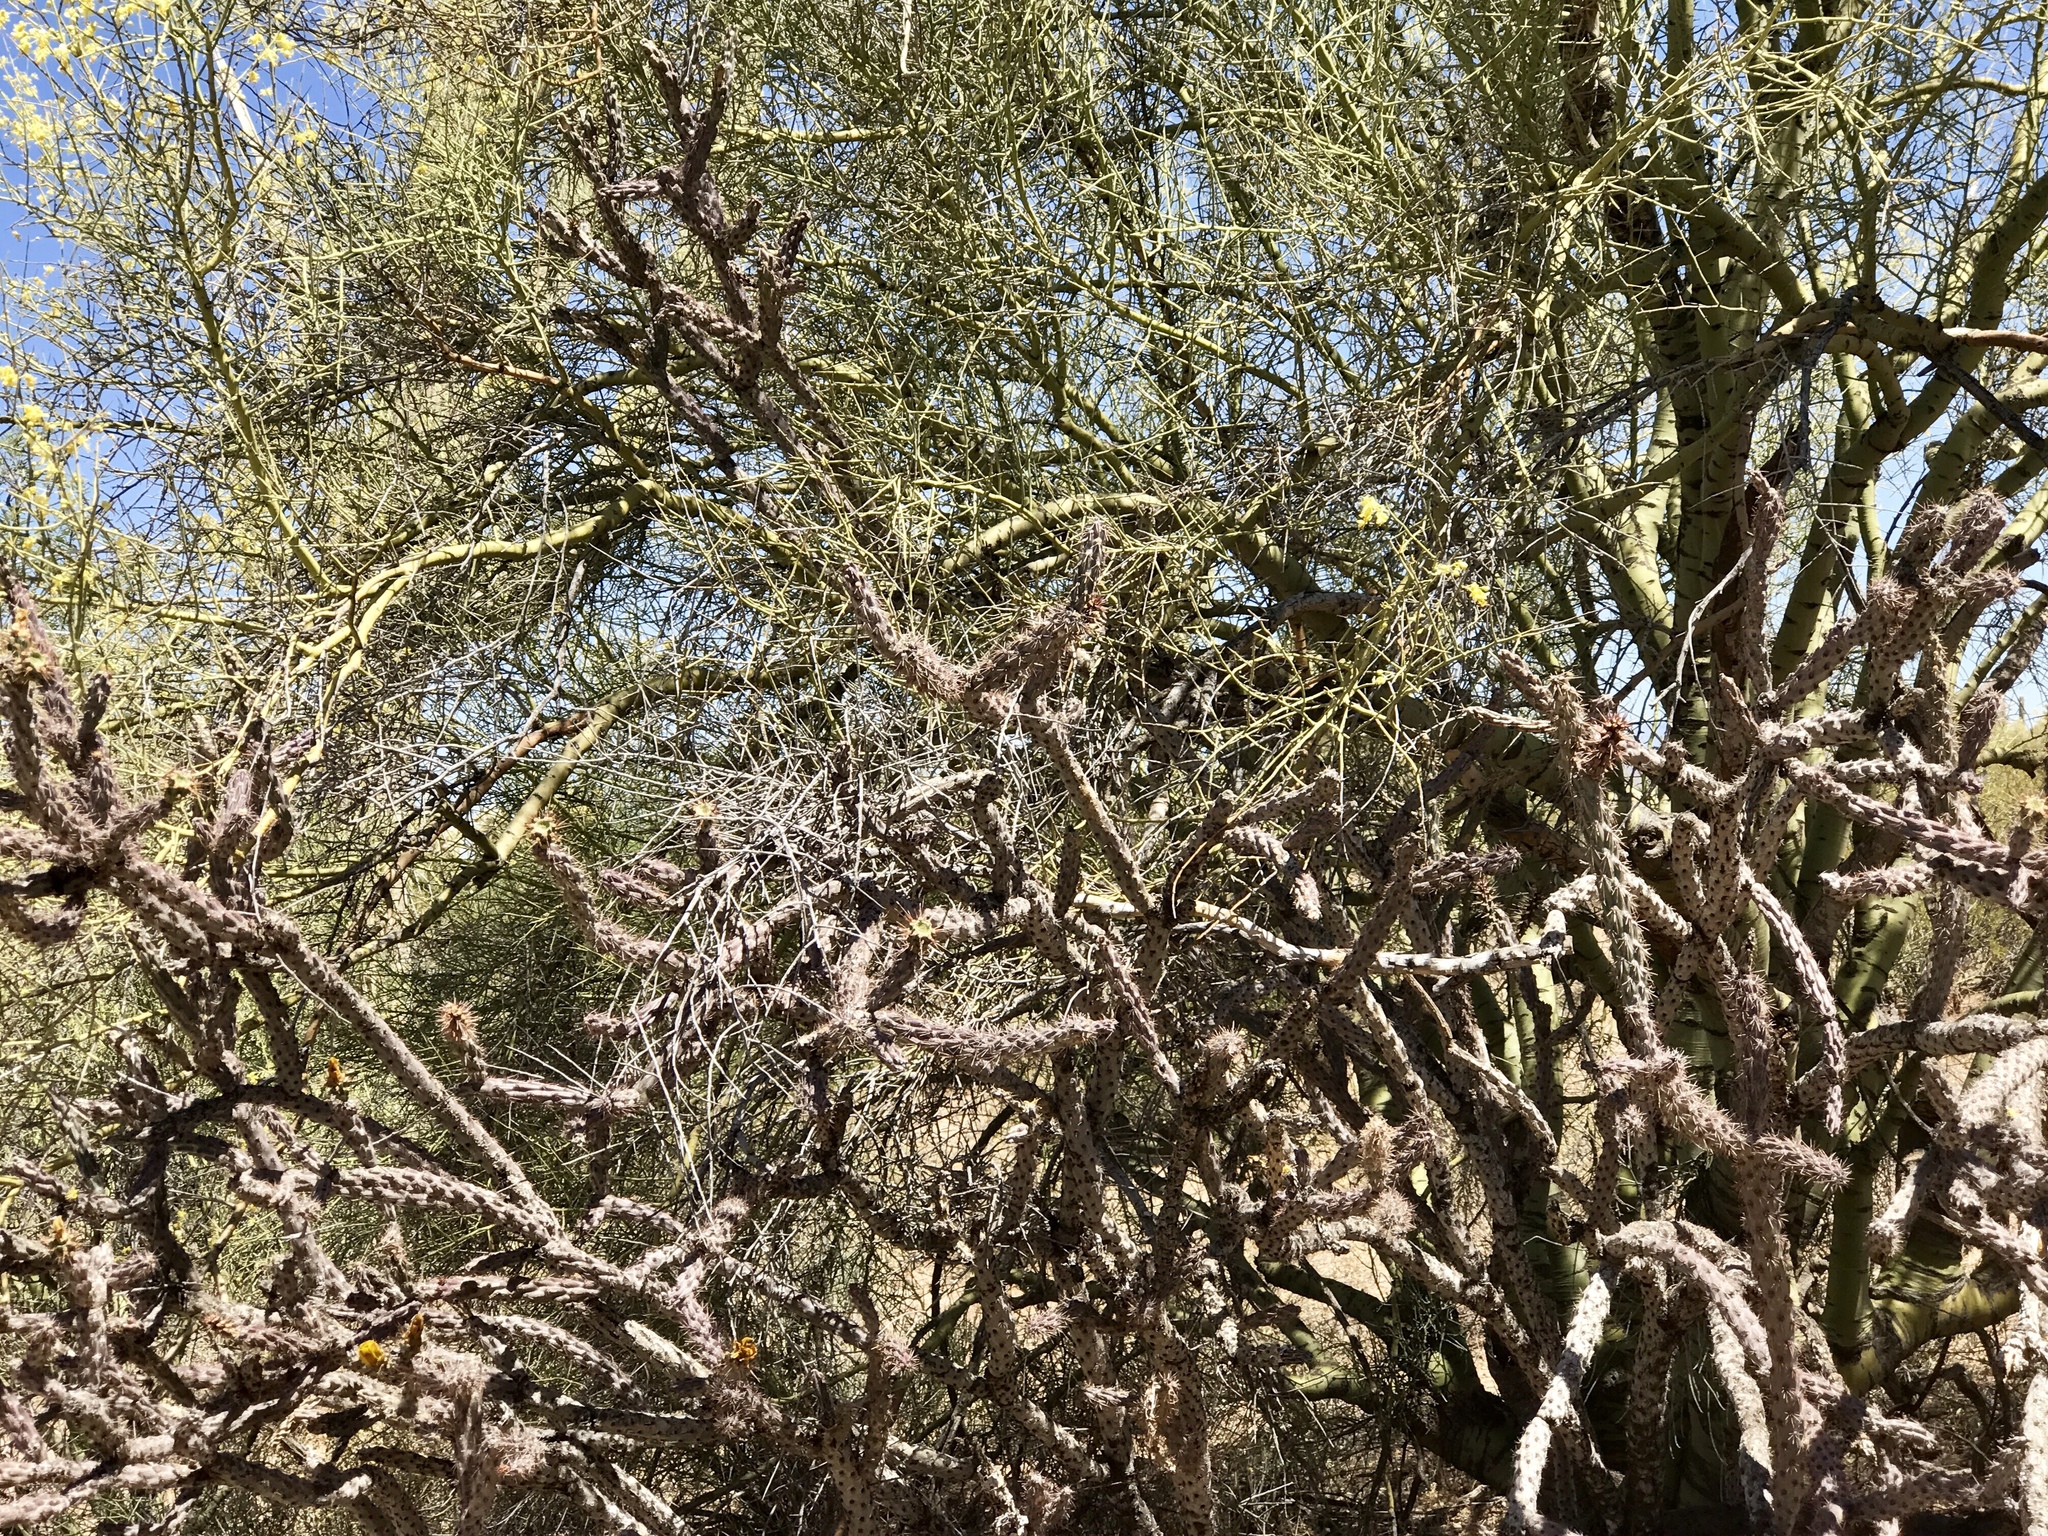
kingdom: Plantae
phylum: Tracheophyta
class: Magnoliopsida
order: Caryophyllales
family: Cactaceae
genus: Cylindropuntia
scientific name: Cylindropuntia acanthocarpa
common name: Buckhorn cholla
